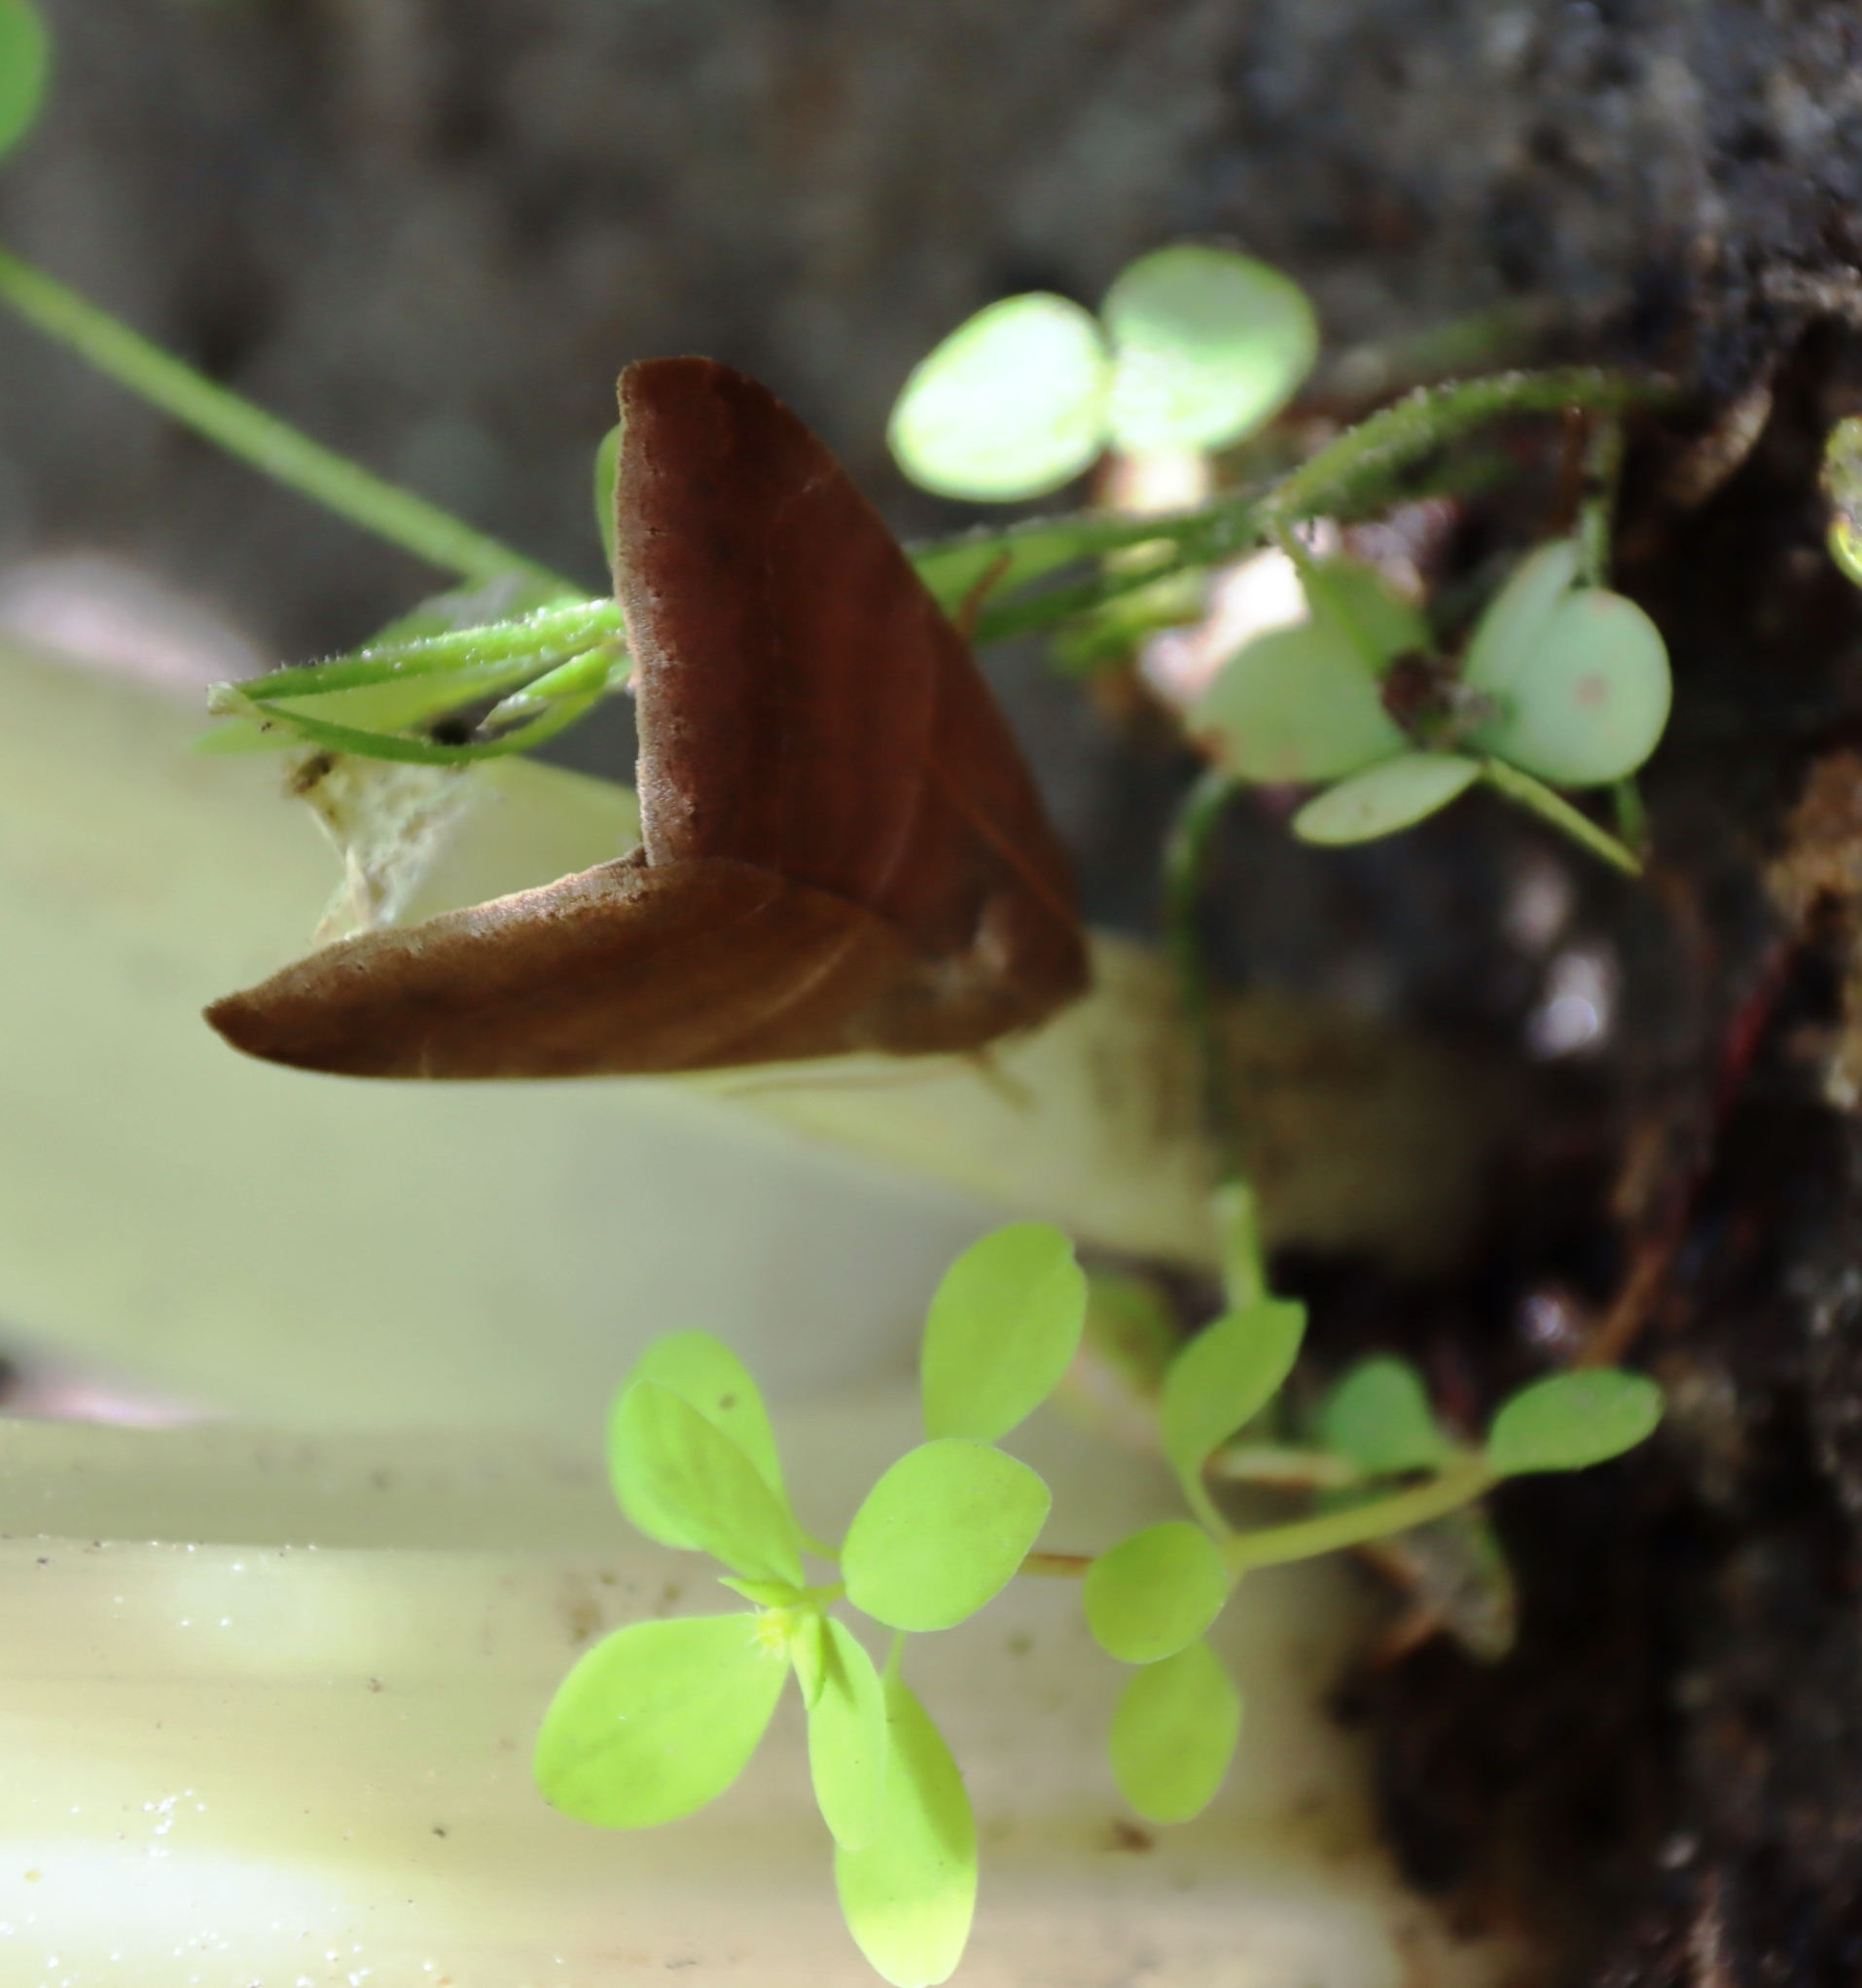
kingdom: Animalia
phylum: Arthropoda
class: Insecta
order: Lepidoptera
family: Erebidae
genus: Achaea
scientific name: Achaea indeterminata
